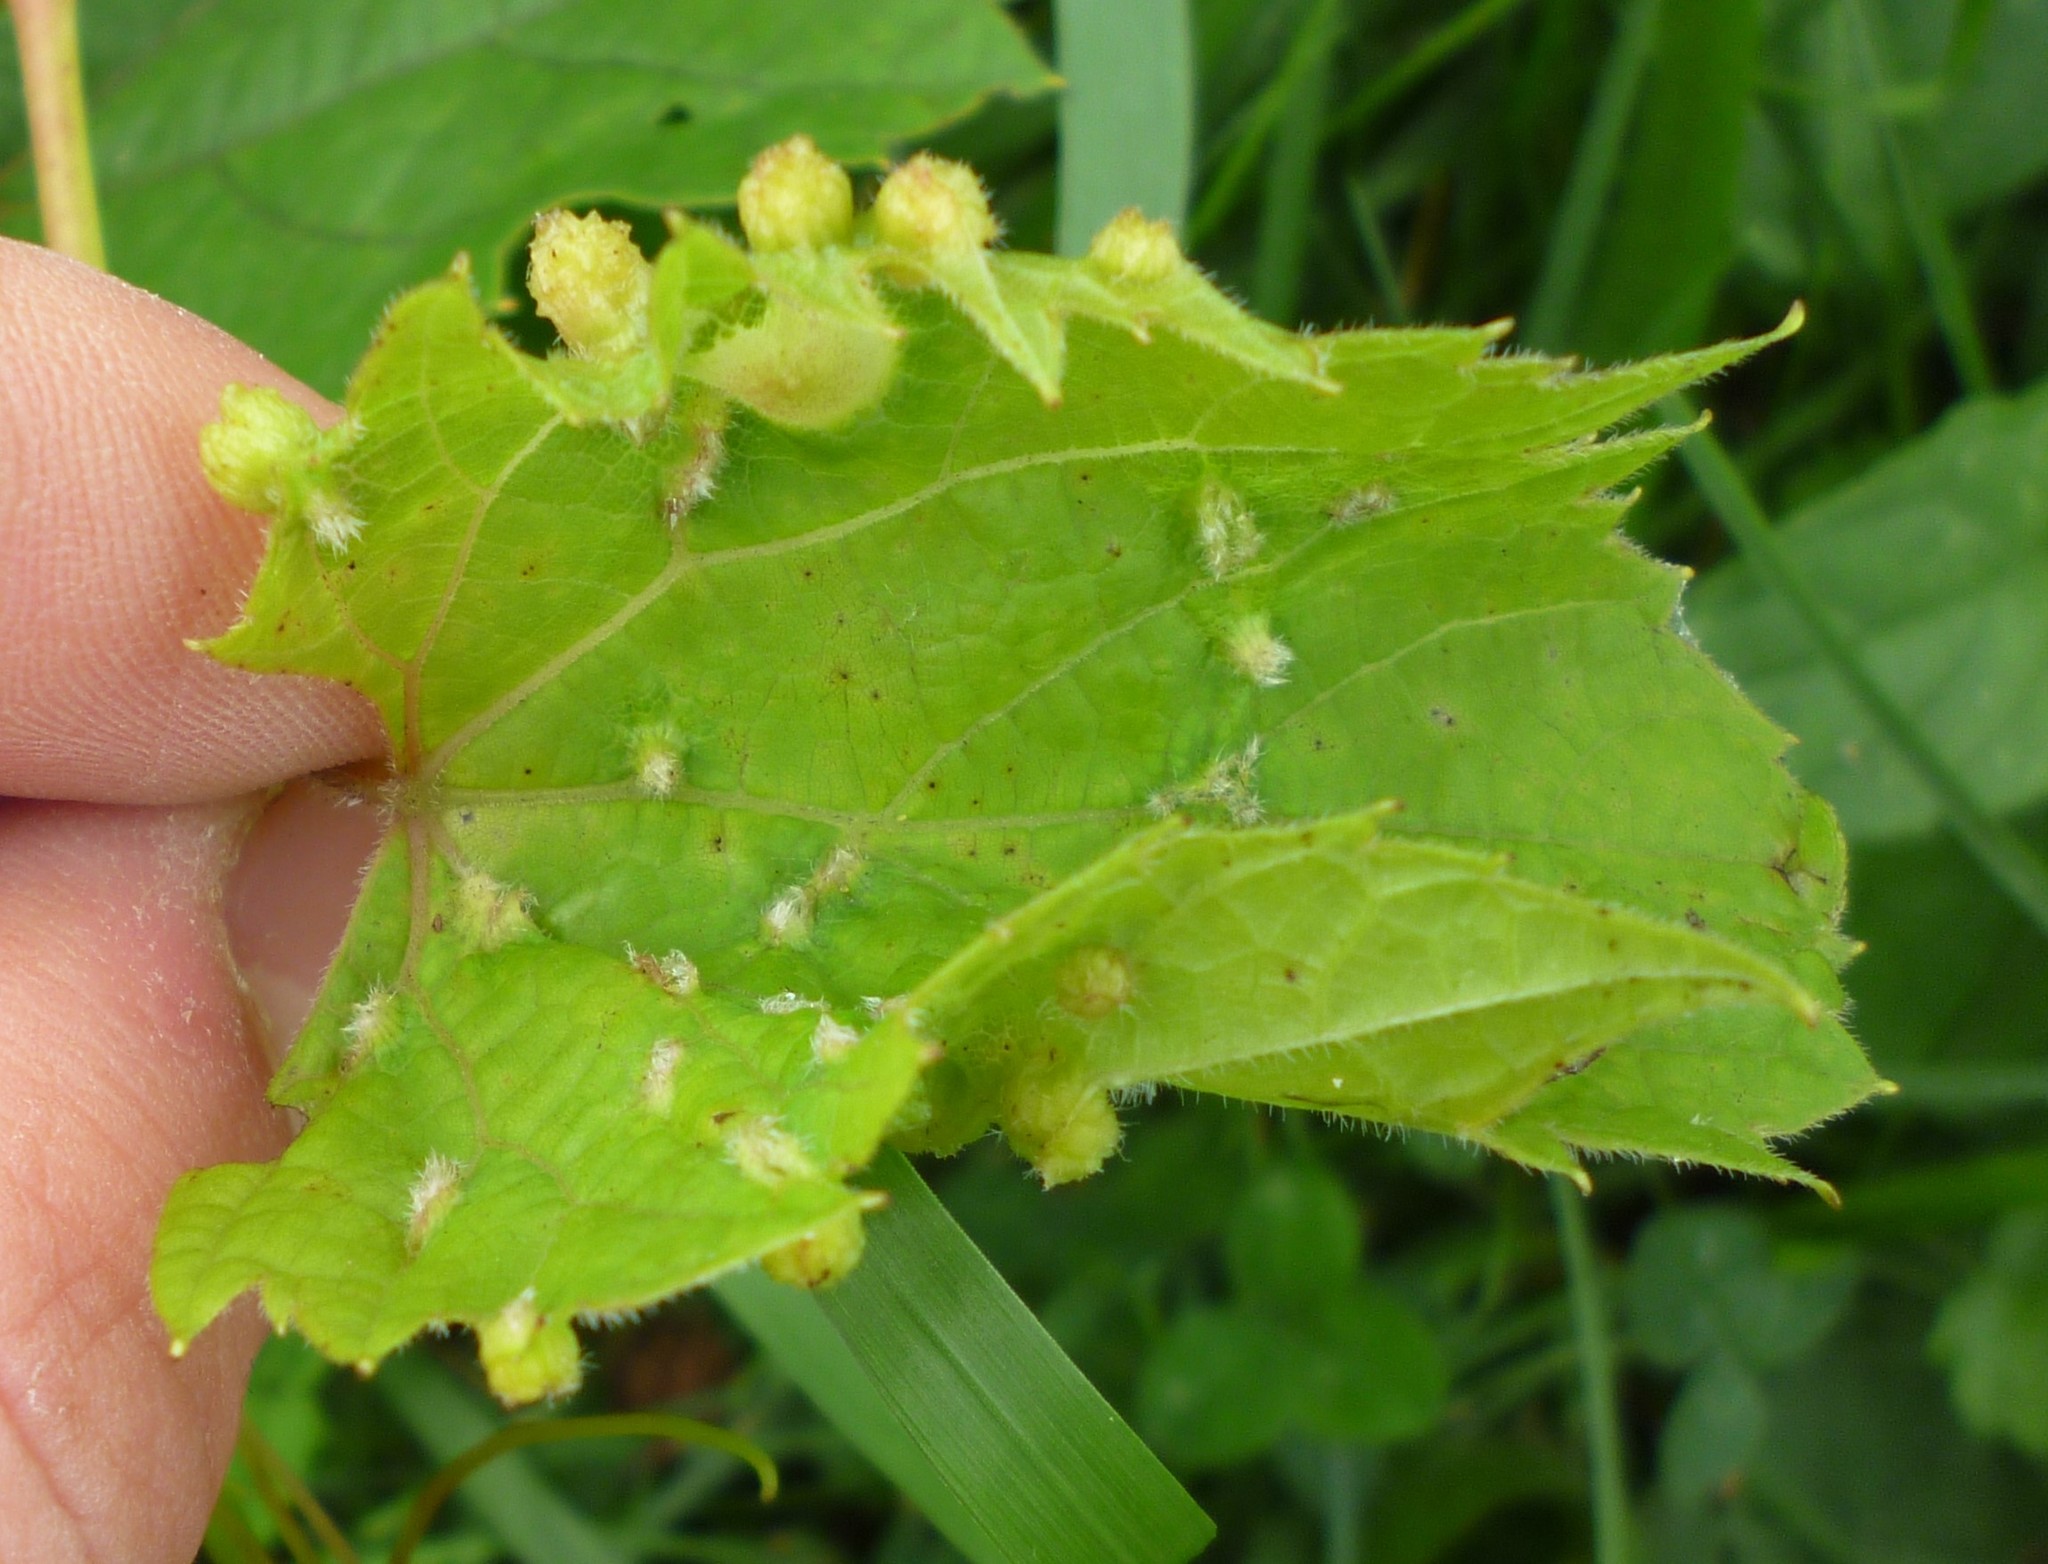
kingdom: Animalia
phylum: Arthropoda
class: Insecta
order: Hemiptera
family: Phylloxeridae
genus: Daktulosphaira
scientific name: Daktulosphaira vitifoliae
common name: Grape phylloxera
